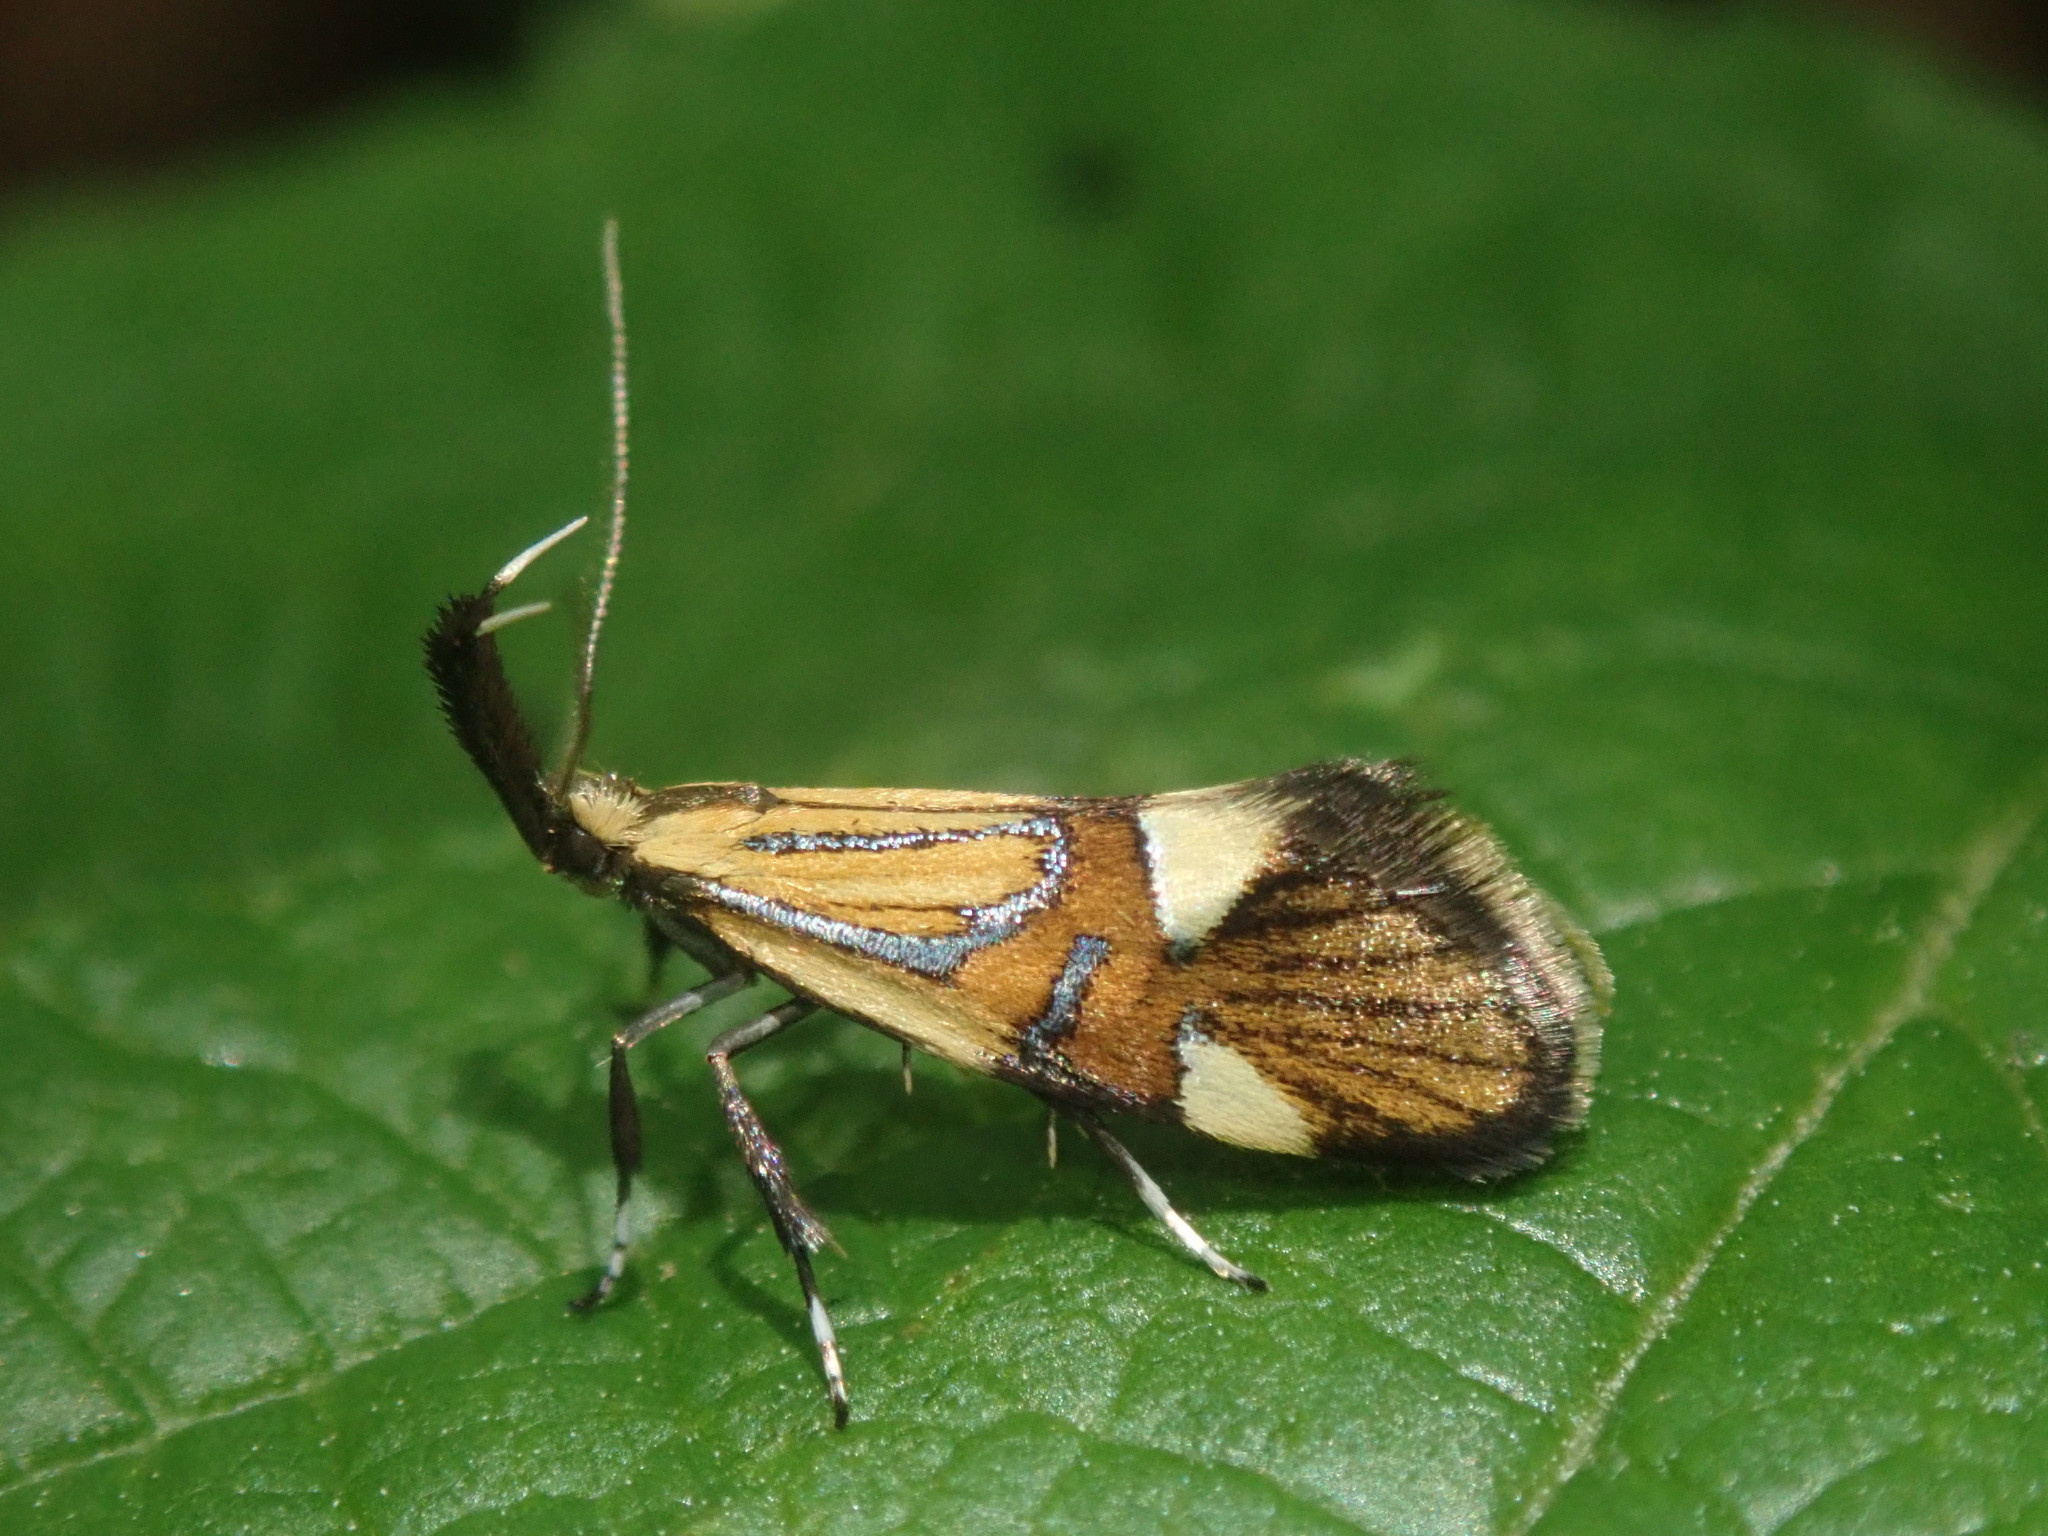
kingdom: Animalia
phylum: Arthropoda
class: Insecta
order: Lepidoptera
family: Oecophoridae
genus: Oecophora
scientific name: Oecophora Alabonia geoffrella
